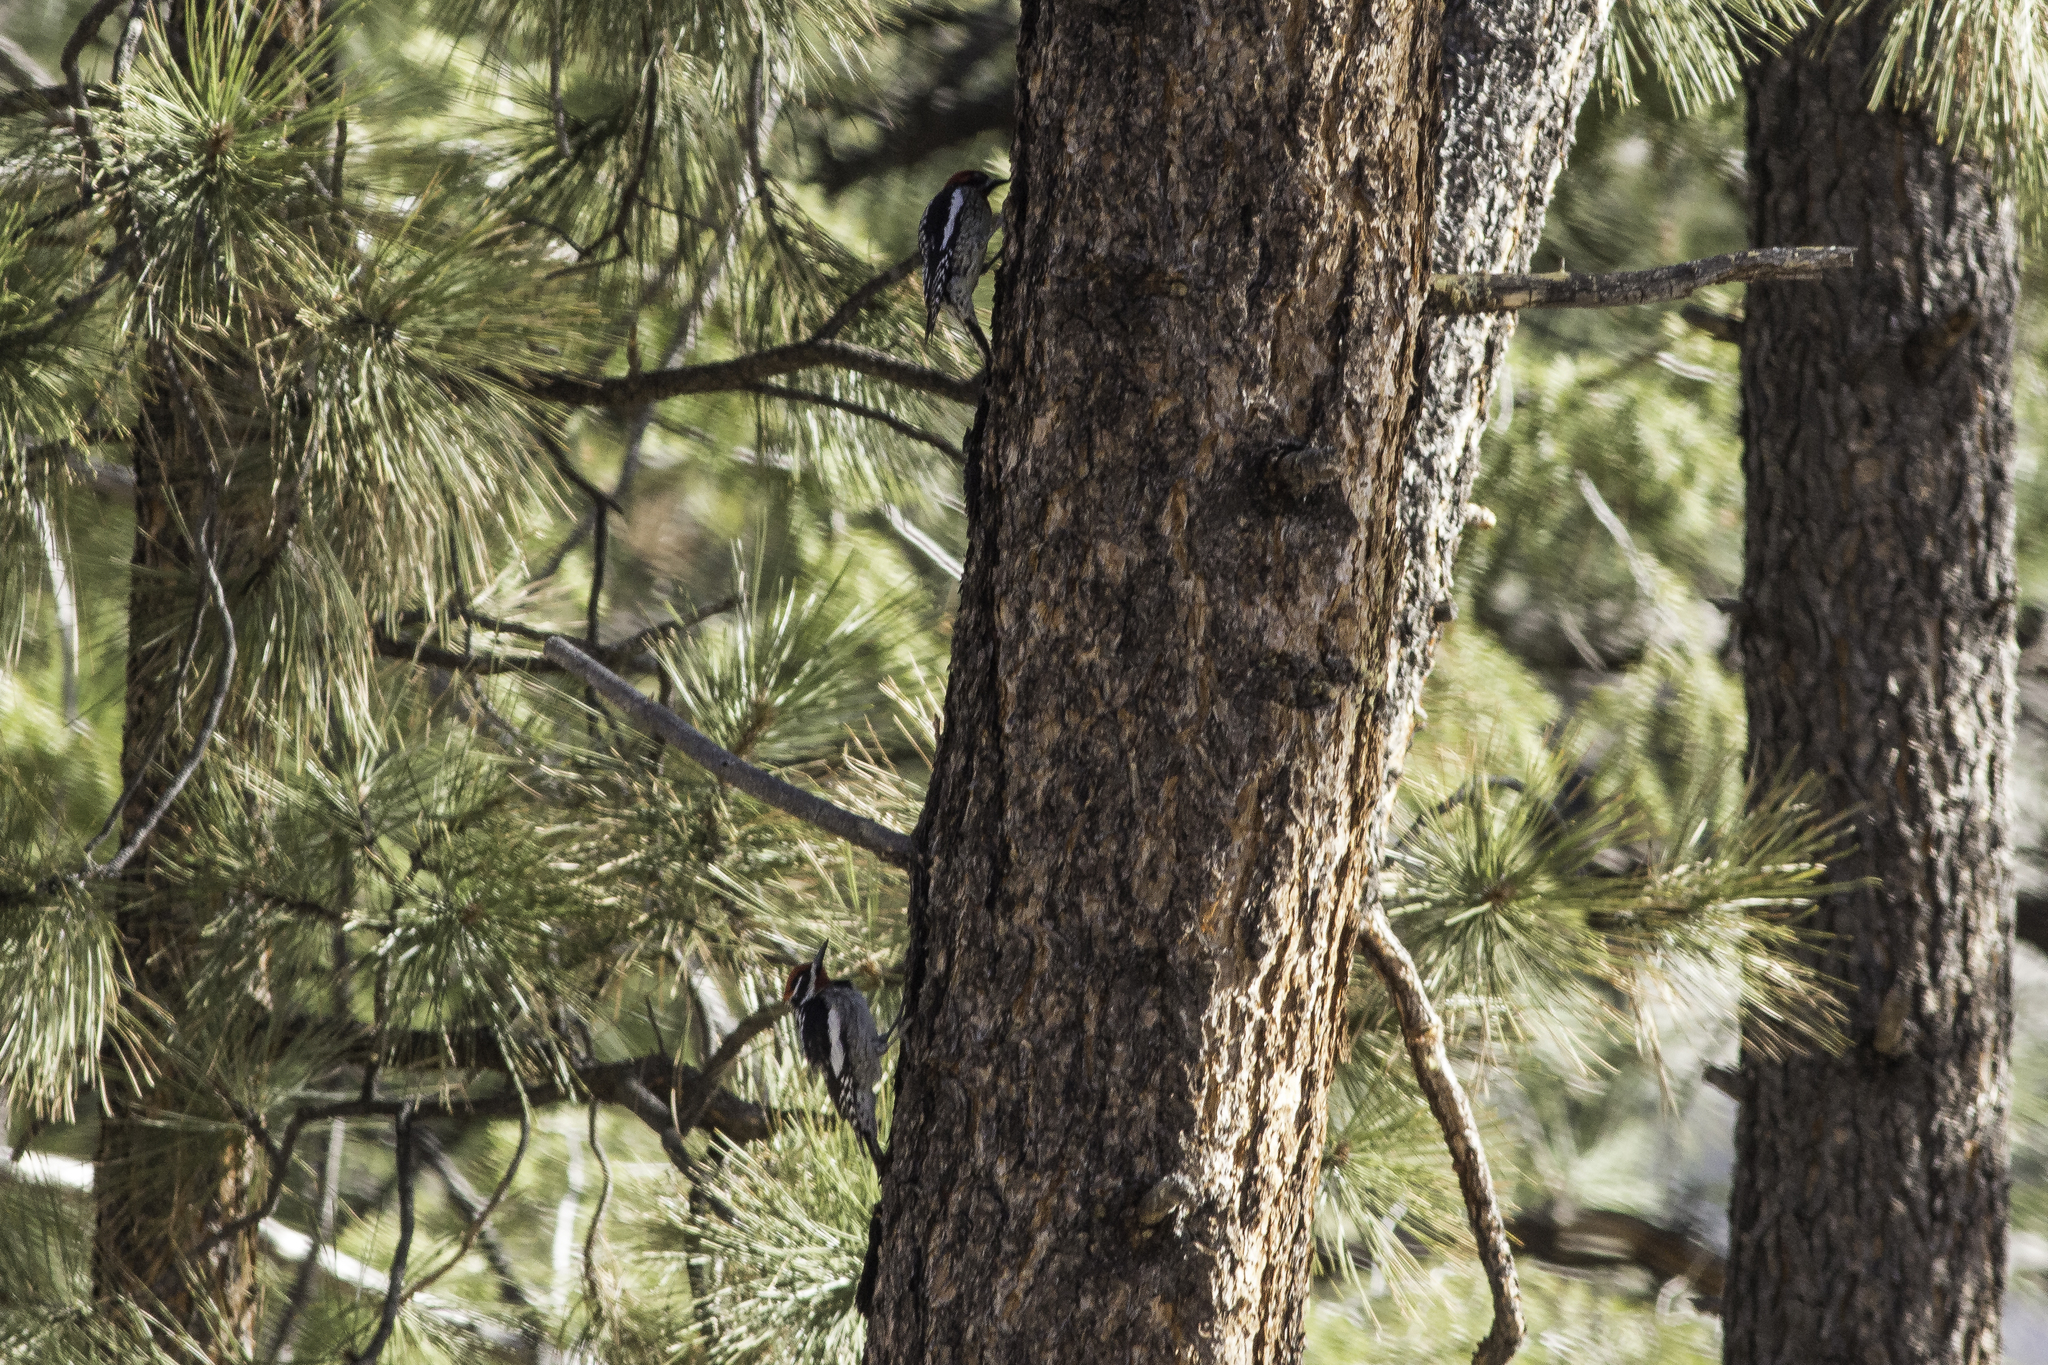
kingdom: Animalia
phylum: Chordata
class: Aves
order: Piciformes
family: Picidae
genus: Sphyrapicus
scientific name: Sphyrapicus nuchalis
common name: Red-naped sapsucker
